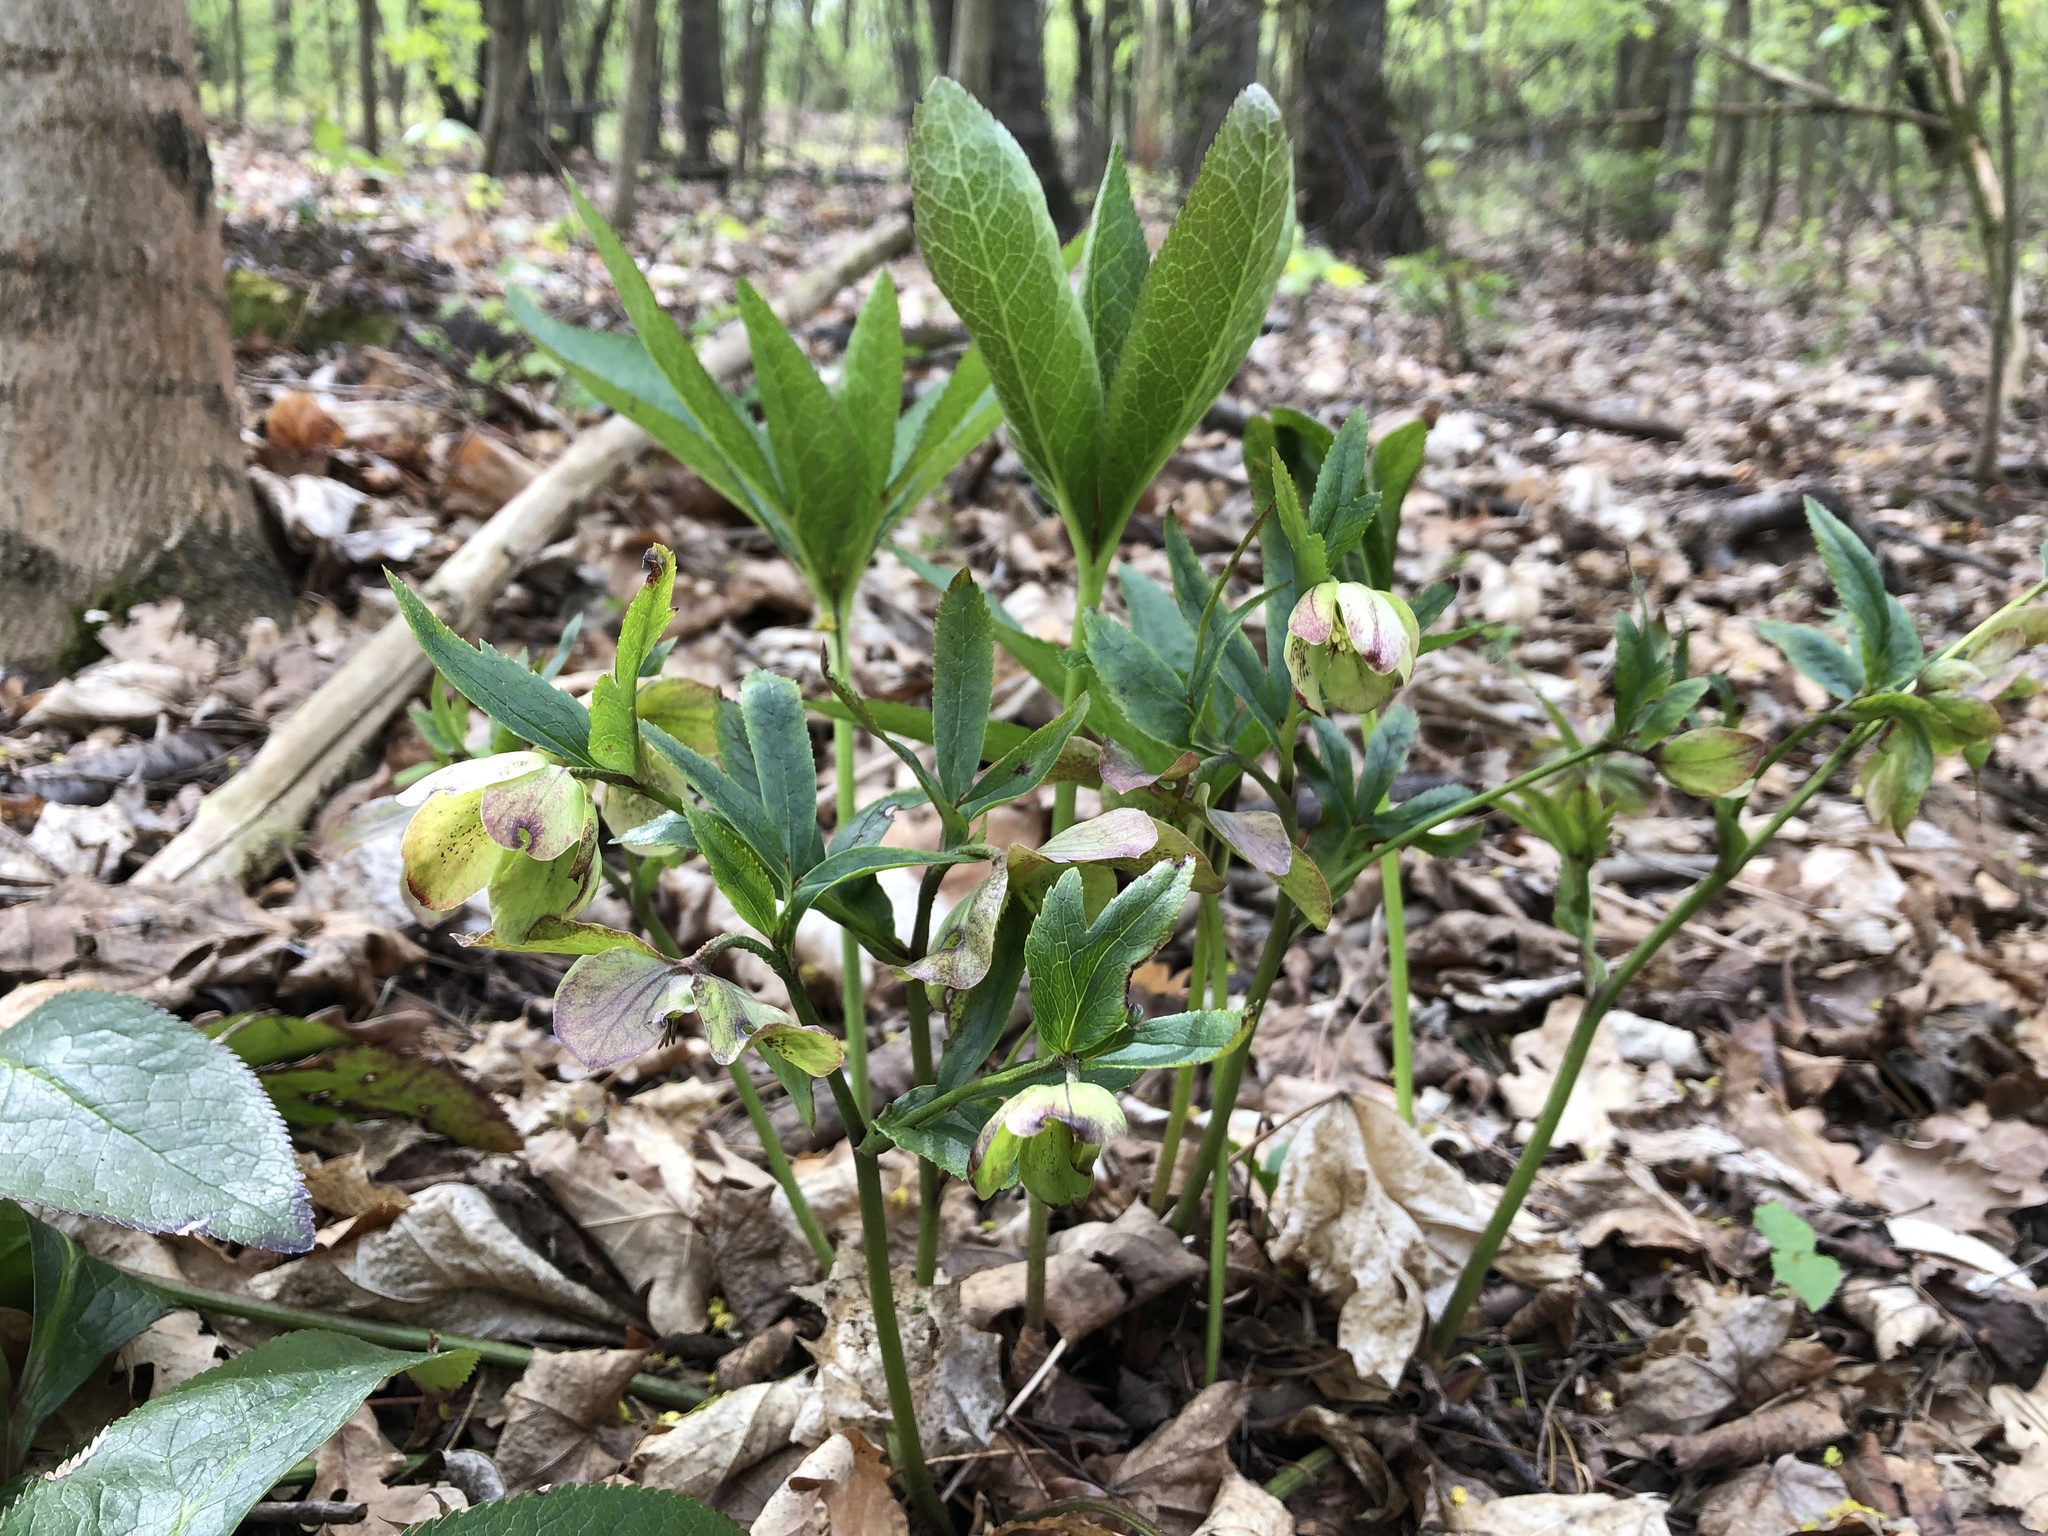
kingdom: Plantae
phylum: Tracheophyta
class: Magnoliopsida
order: Ranunculales
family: Ranunculaceae
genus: Helleborus
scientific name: Helleborus orientalis
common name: Lenten-rose
